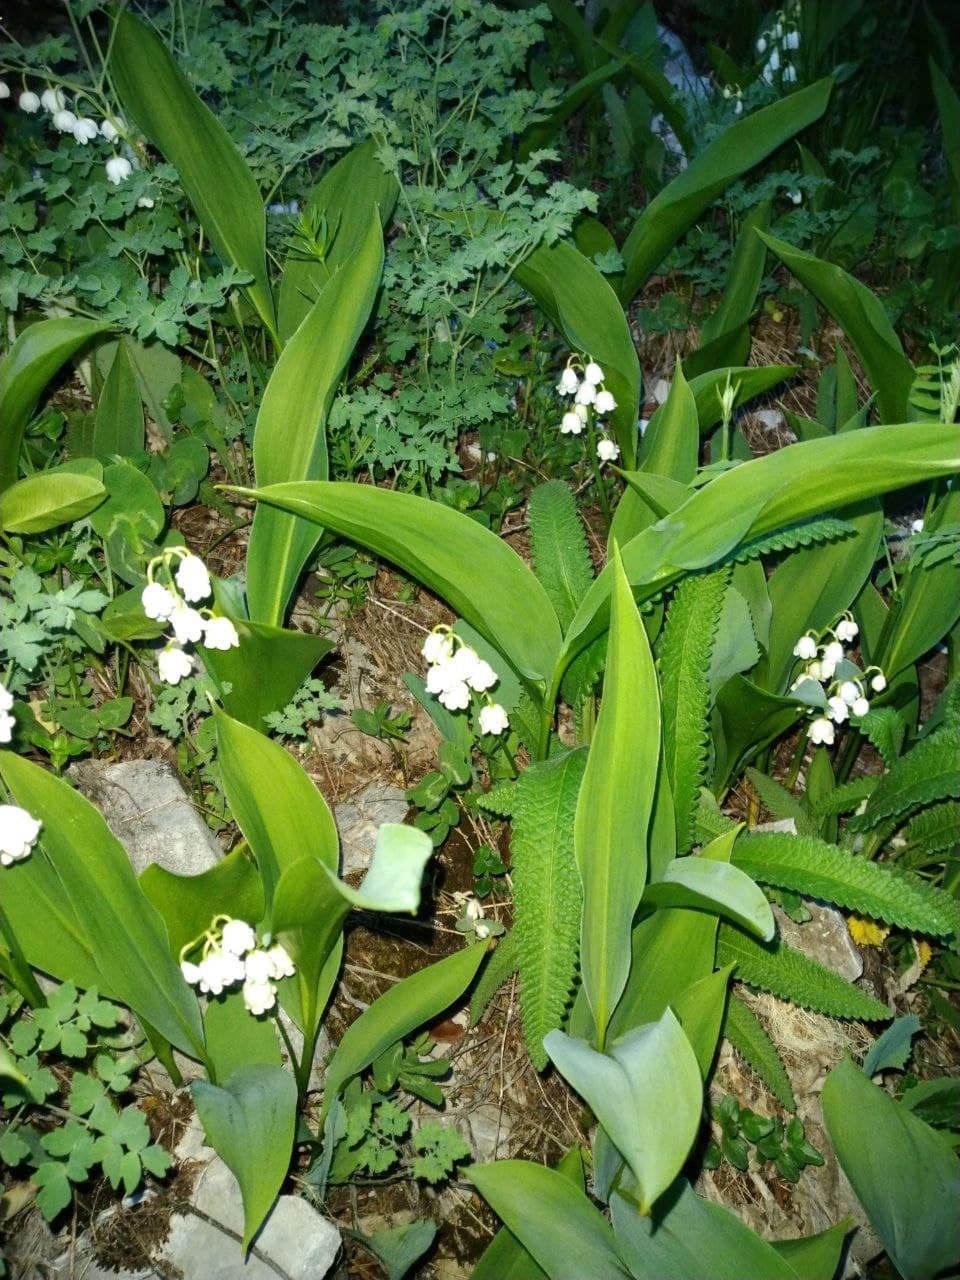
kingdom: Plantae
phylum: Tracheophyta
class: Liliopsida
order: Asparagales
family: Asparagaceae
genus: Convallaria
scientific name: Convallaria majalis
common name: Lily-of-the-valley
